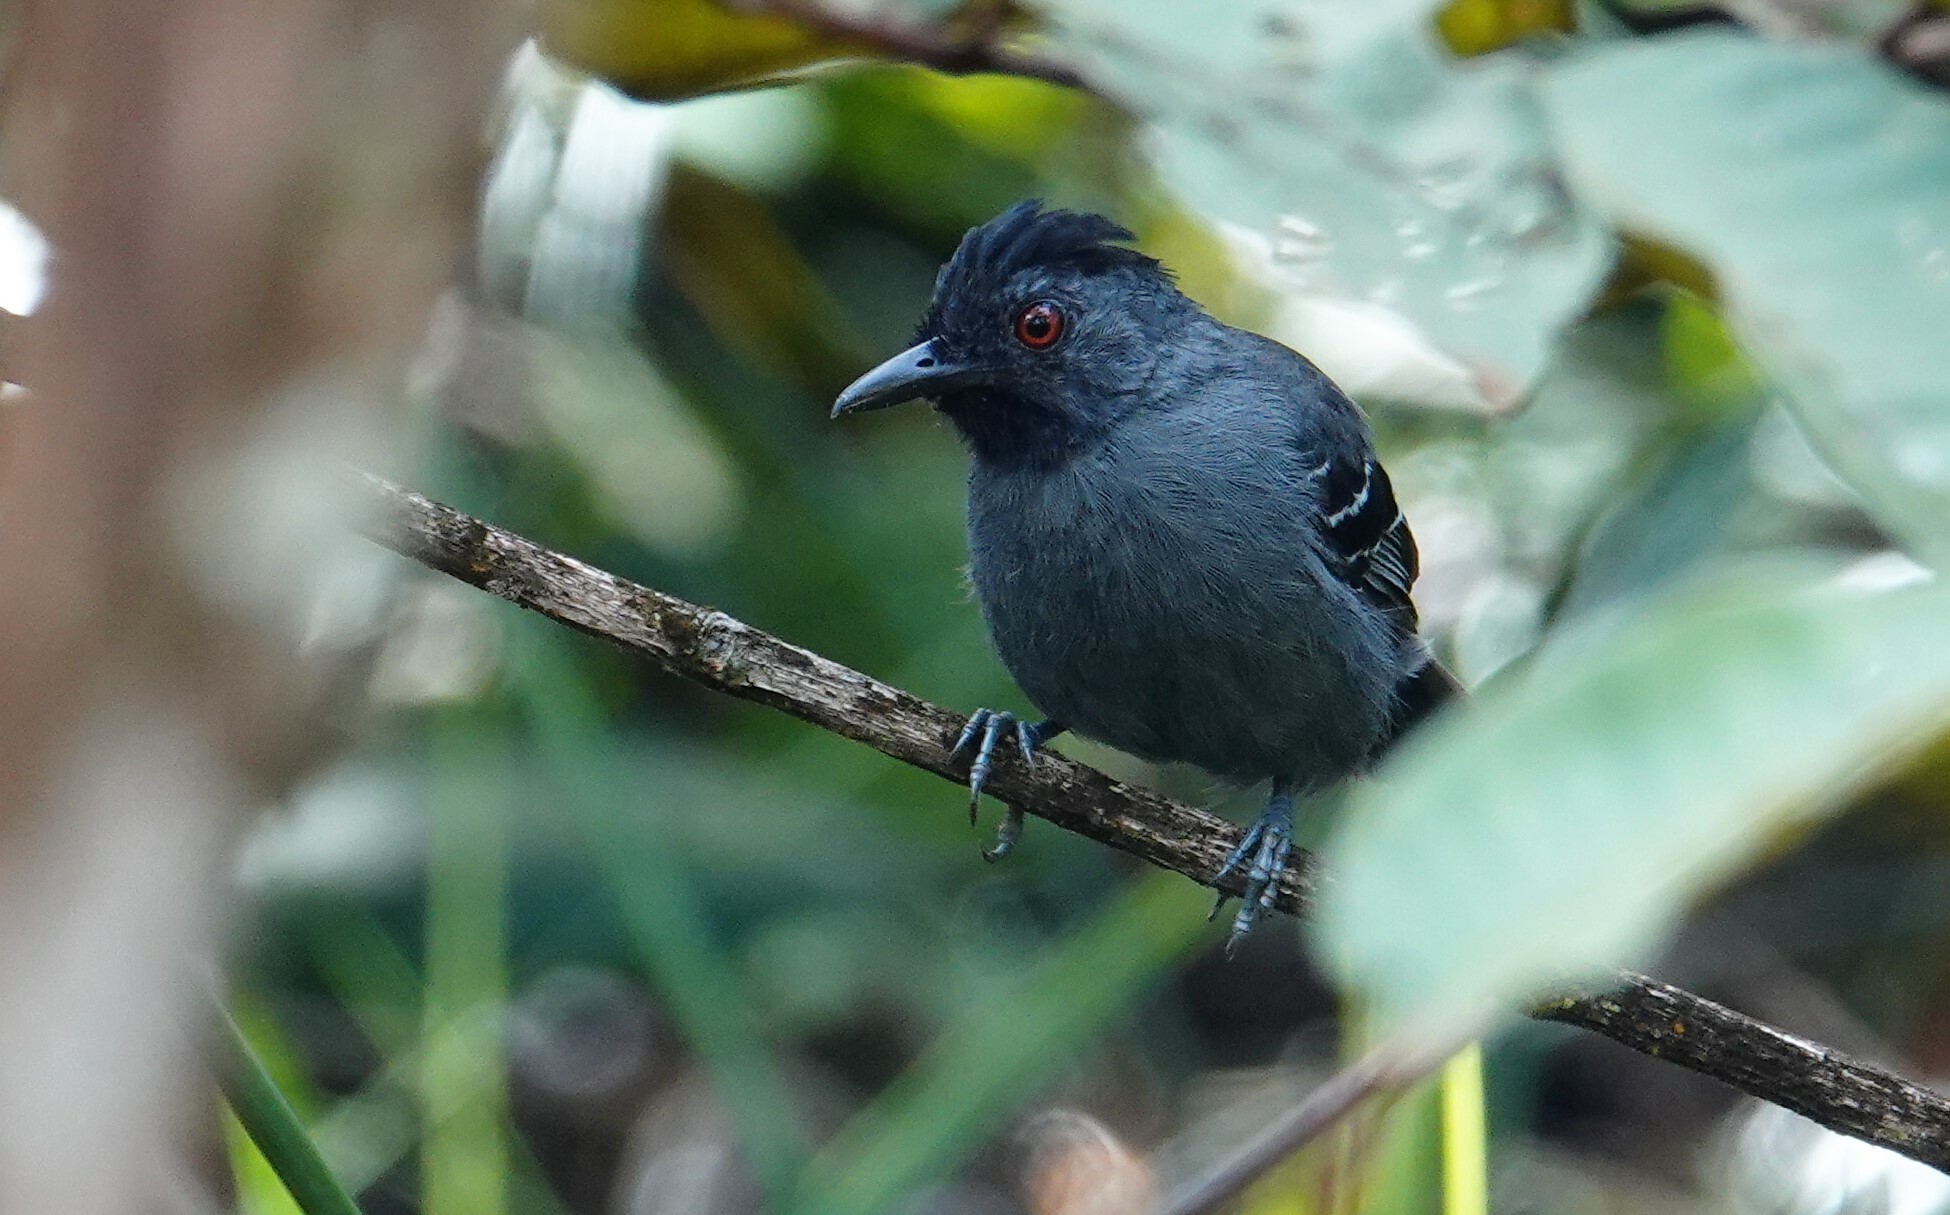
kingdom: Animalia
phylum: Chordata
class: Aves
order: Passeriformes
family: Thamnophilidae
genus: Percnostola
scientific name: Percnostola rufifrons
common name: Black-headed antbird
